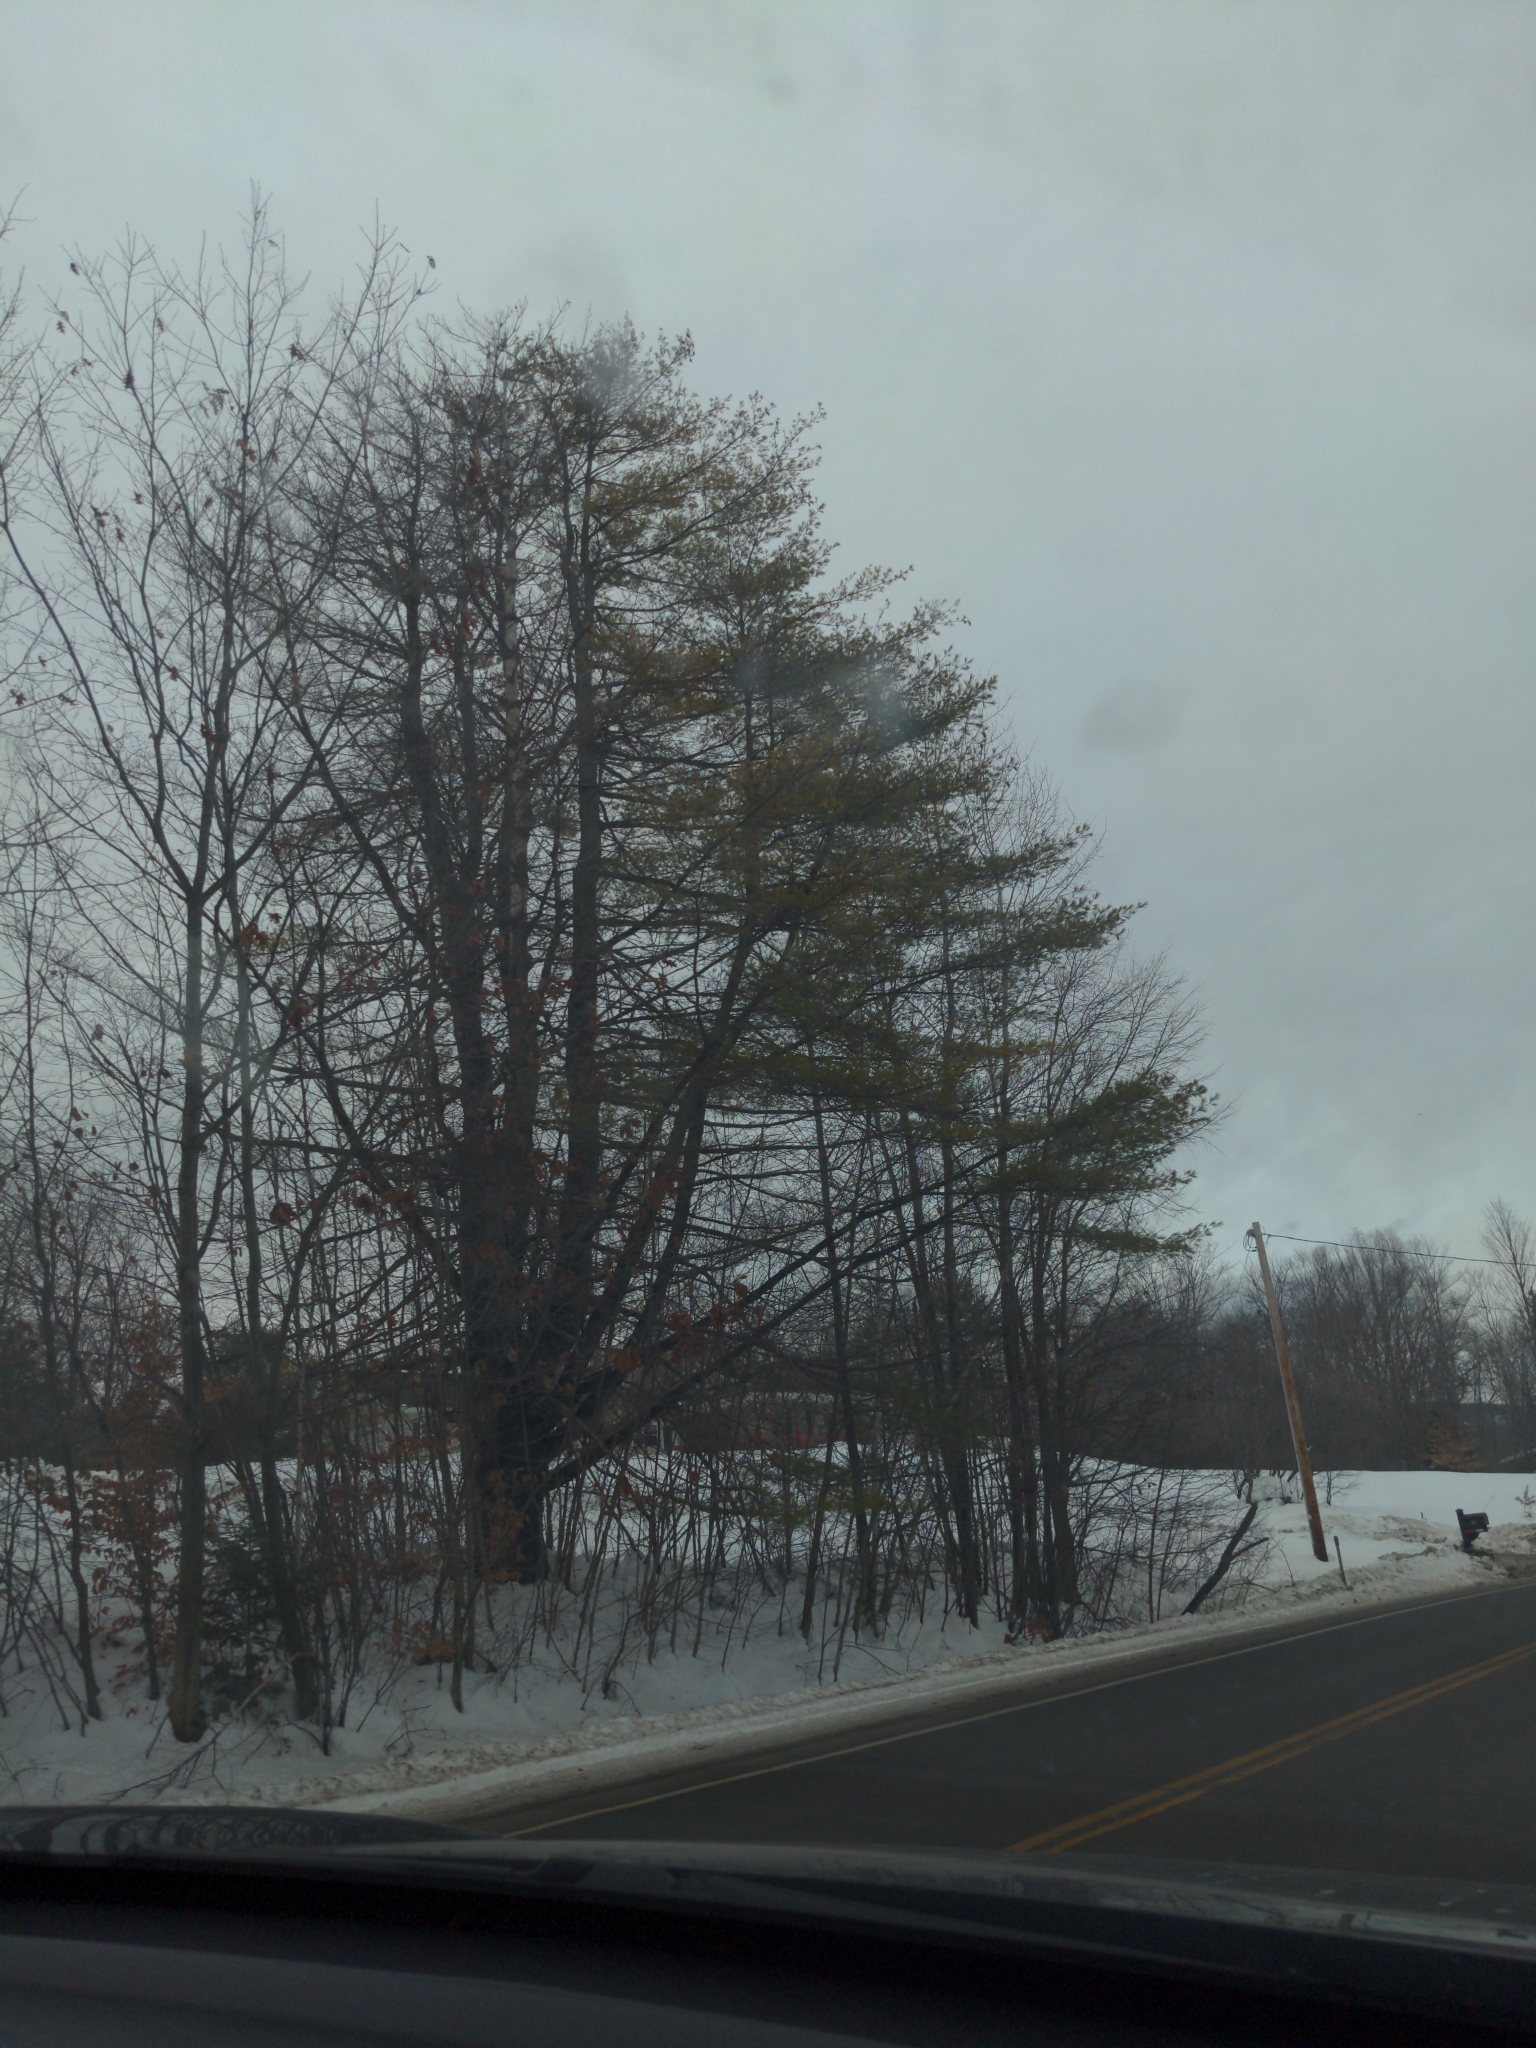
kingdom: Plantae
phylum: Tracheophyta
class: Pinopsida
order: Pinales
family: Pinaceae
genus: Pinus
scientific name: Pinus strobus
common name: Weymouth pine
